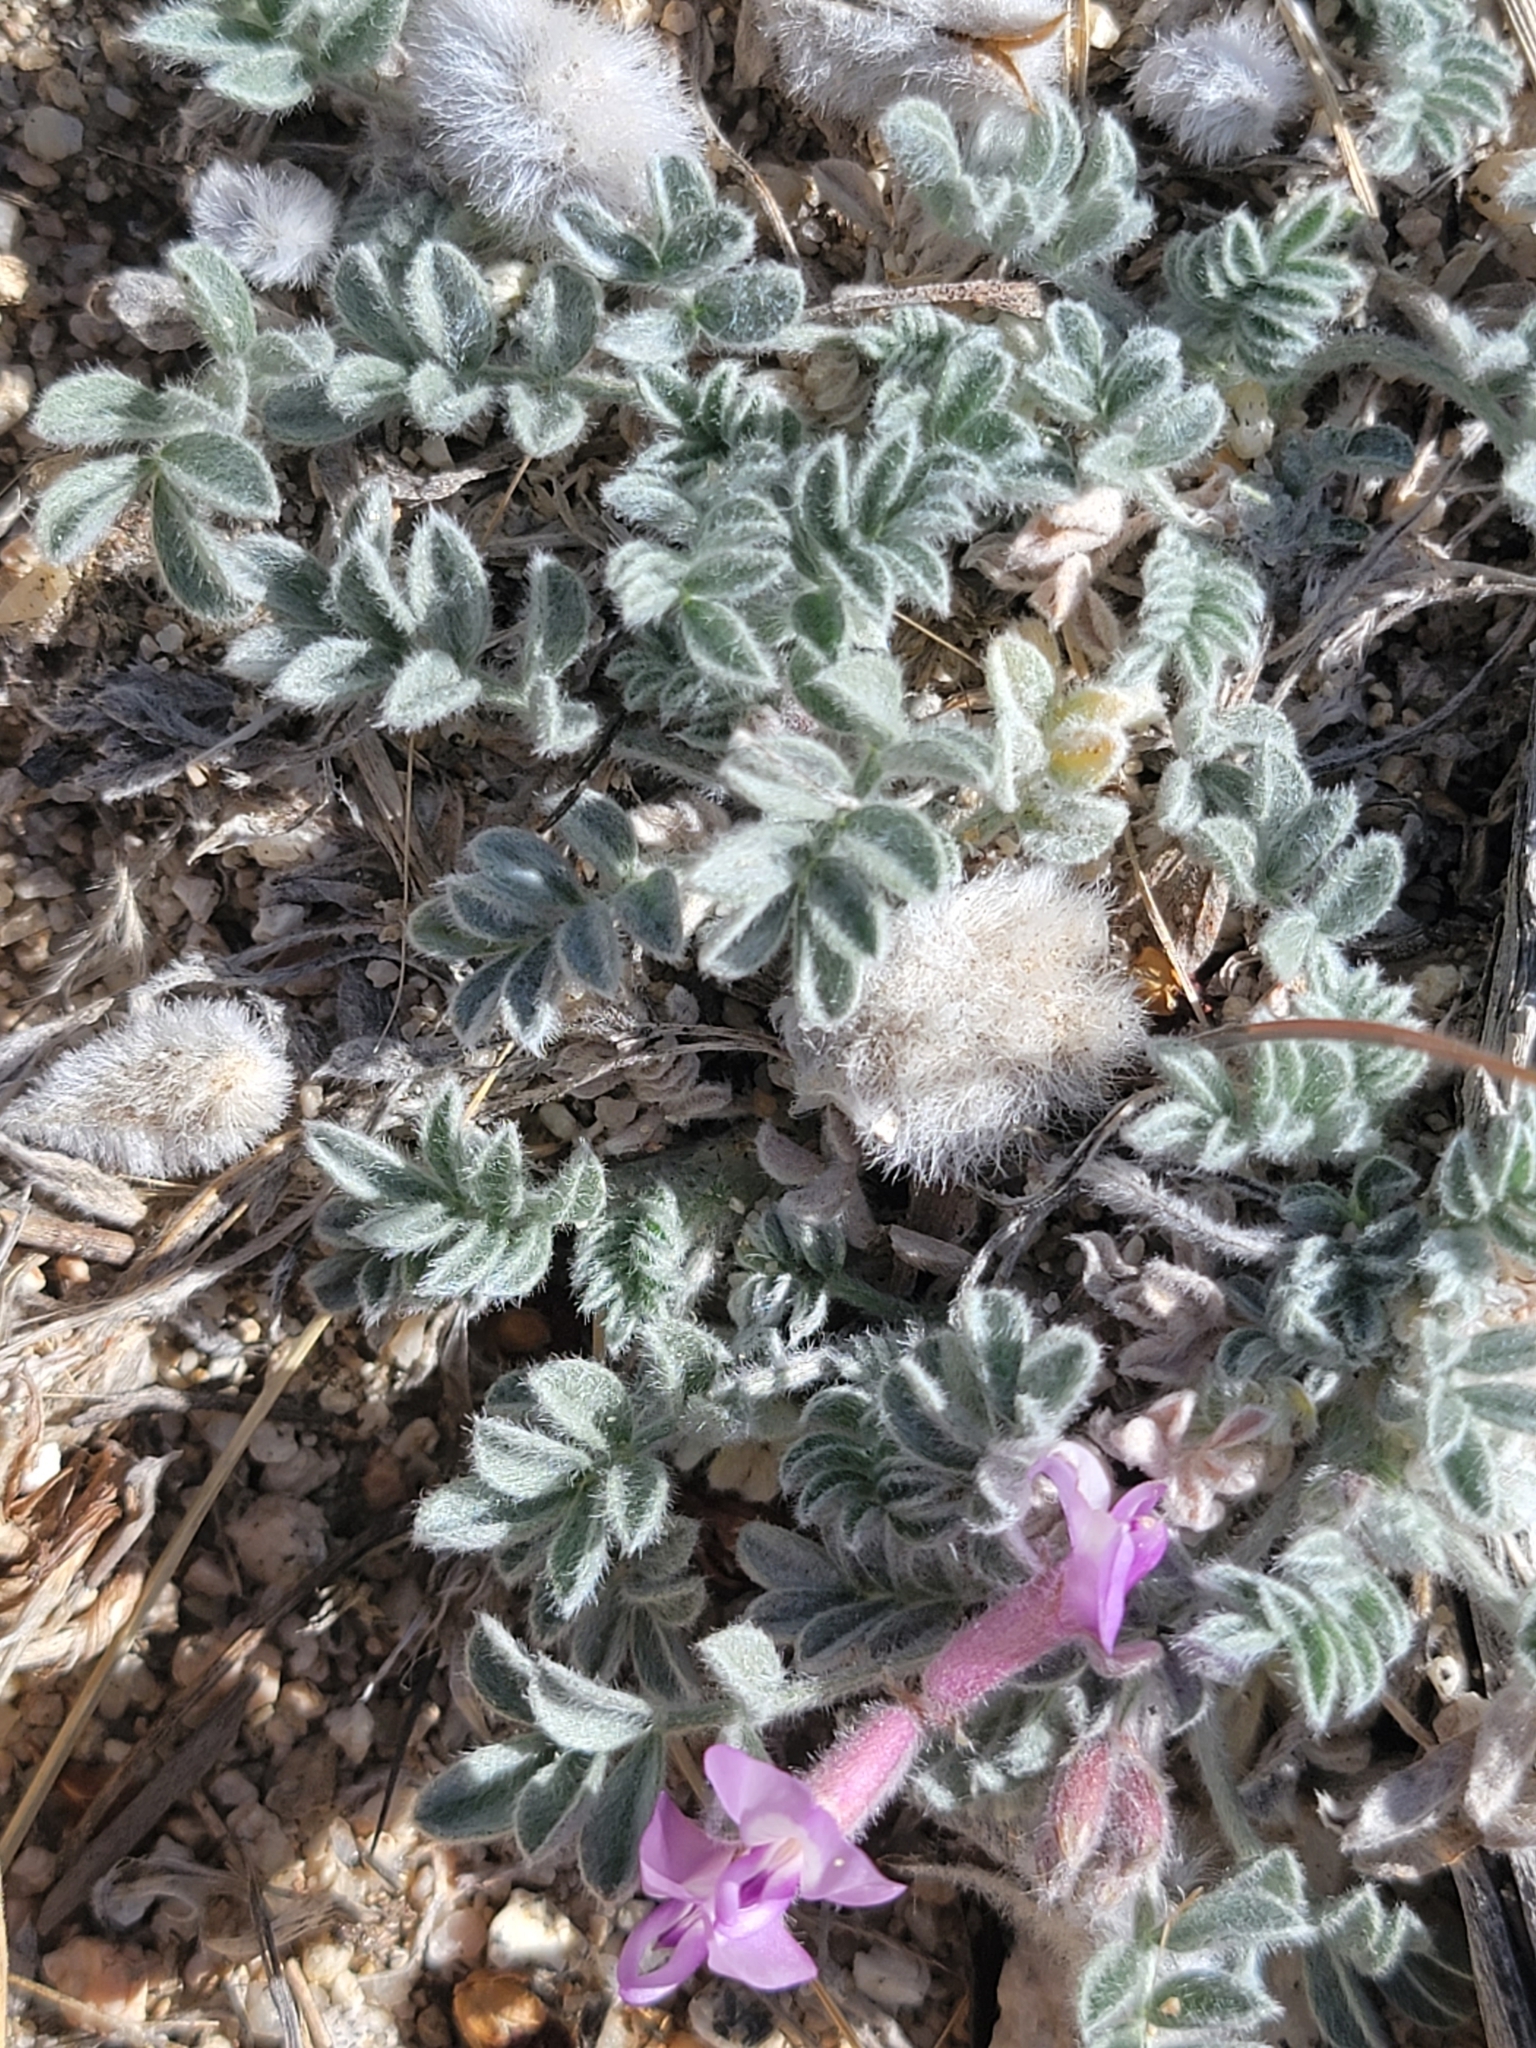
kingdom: Plantae
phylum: Tracheophyta
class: Magnoliopsida
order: Fabales
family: Fabaceae
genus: Astragalus
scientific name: Astragalus purshii
